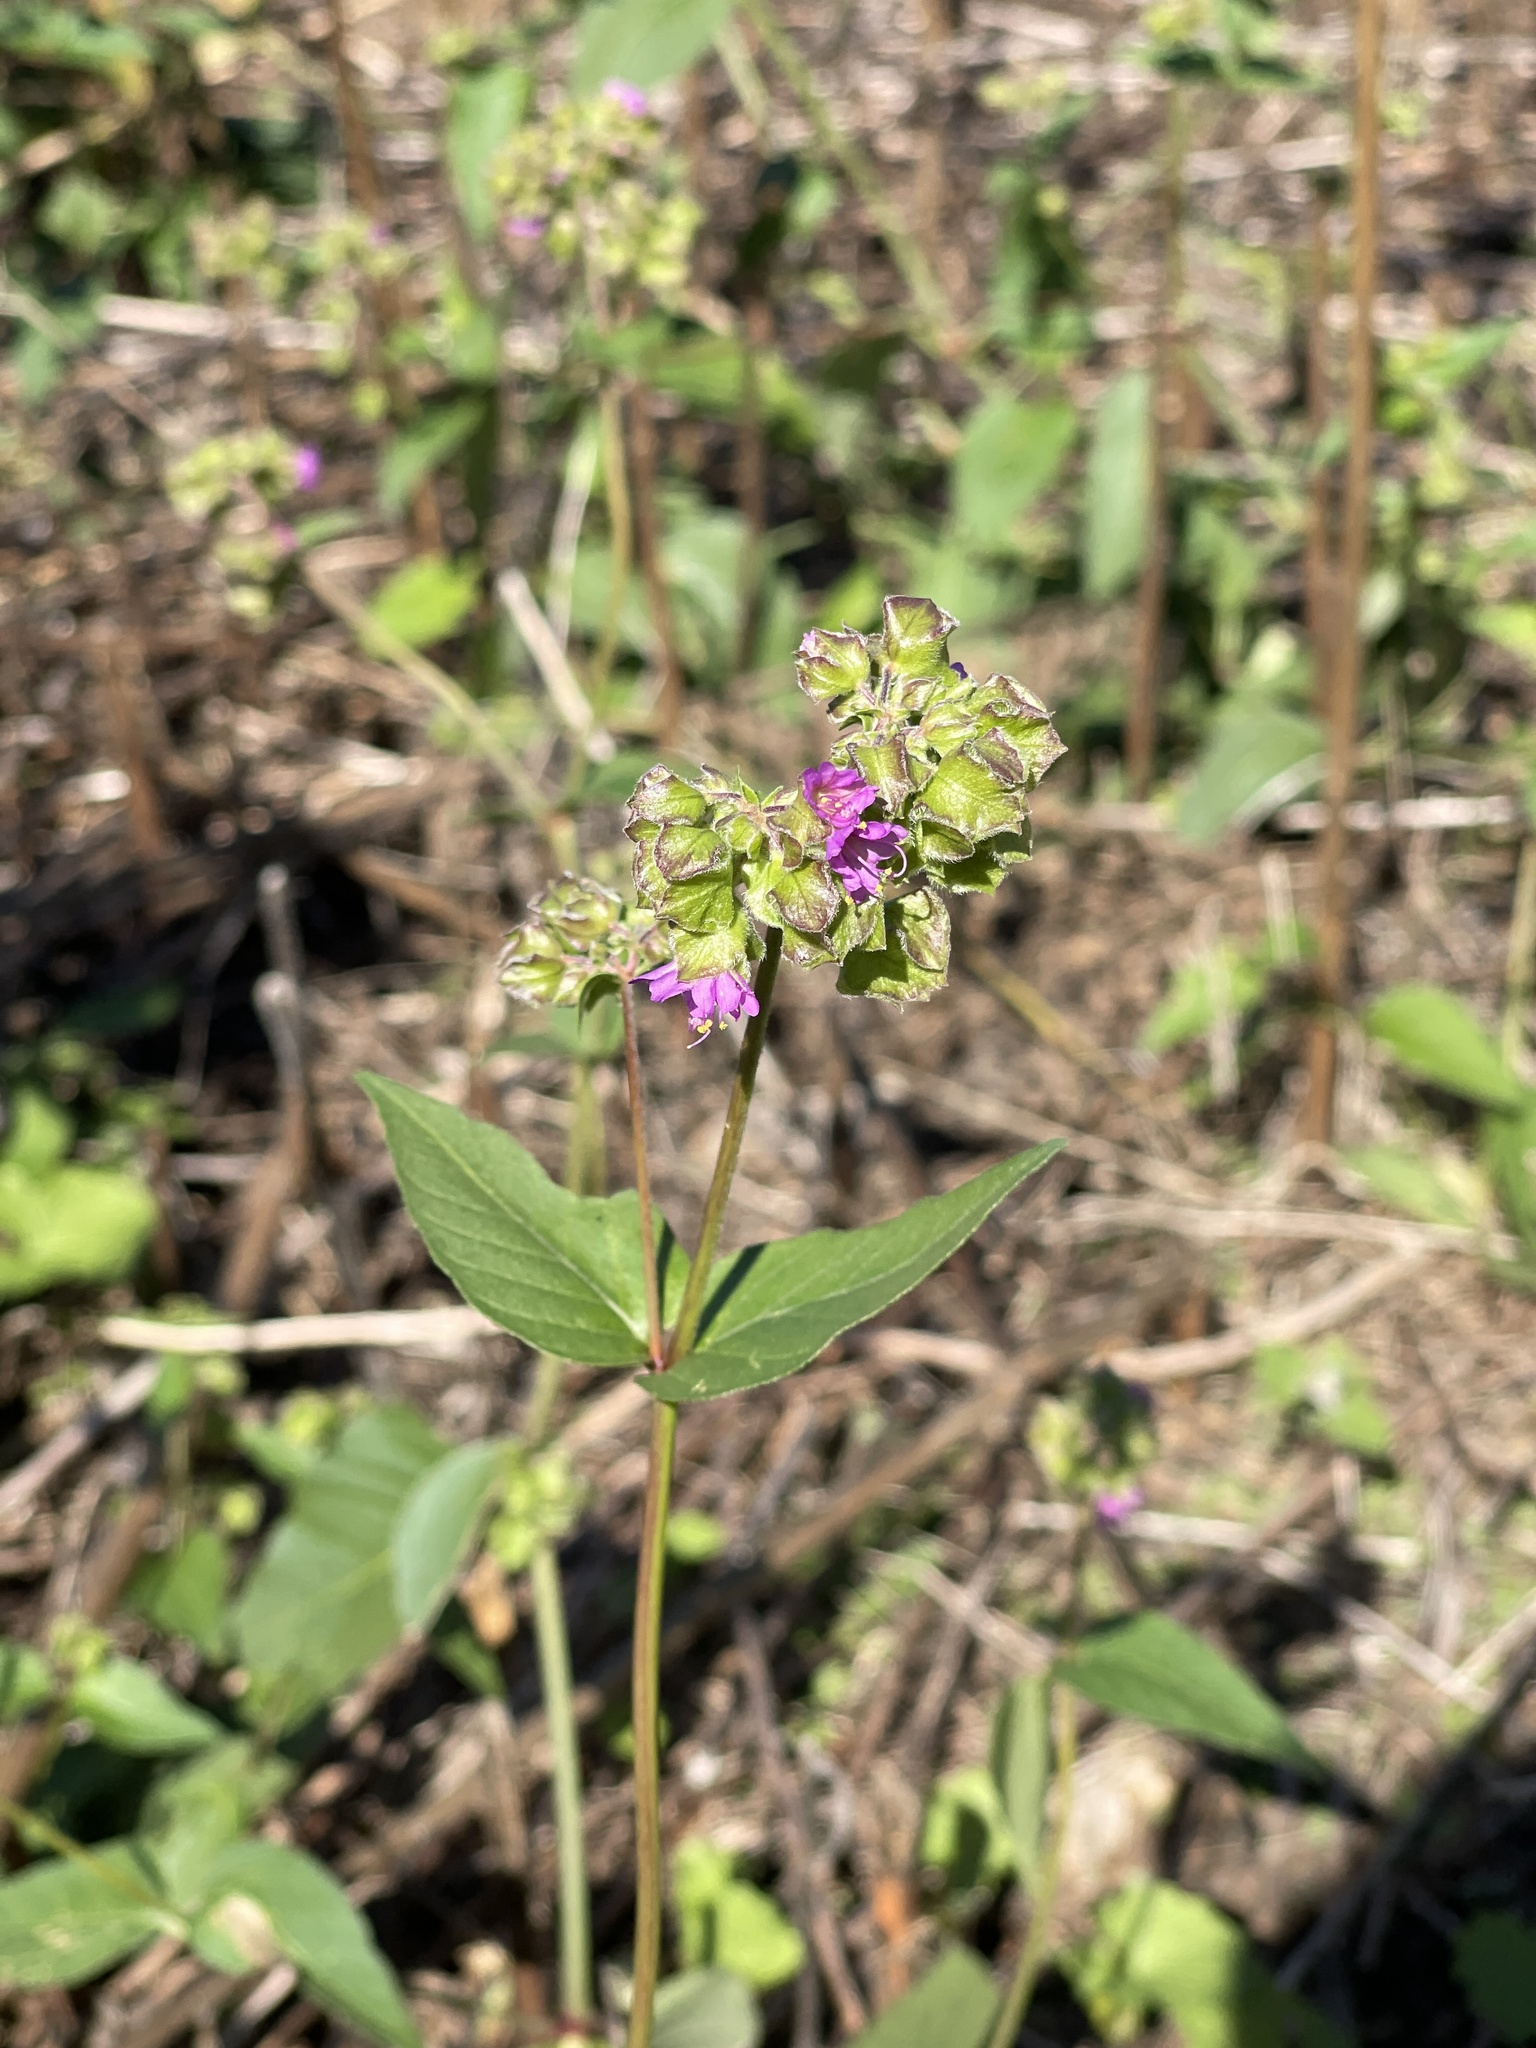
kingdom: Plantae
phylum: Tracheophyta
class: Magnoliopsida
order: Caryophyllales
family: Nyctaginaceae
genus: Mirabilis
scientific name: Mirabilis nyctaginea
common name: Umbrella wort
